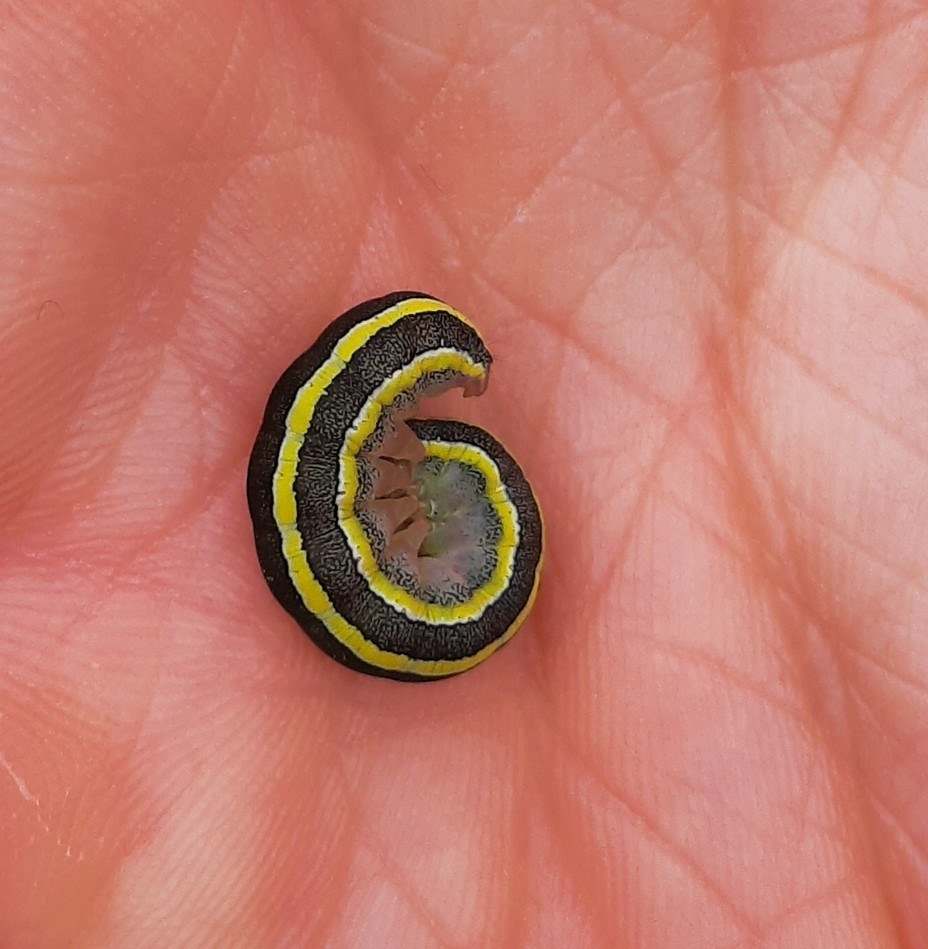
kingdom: Animalia
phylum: Arthropoda
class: Insecta
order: Lepidoptera
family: Noctuidae
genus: Ceramica
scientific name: Ceramica pisi
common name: Broom moth
